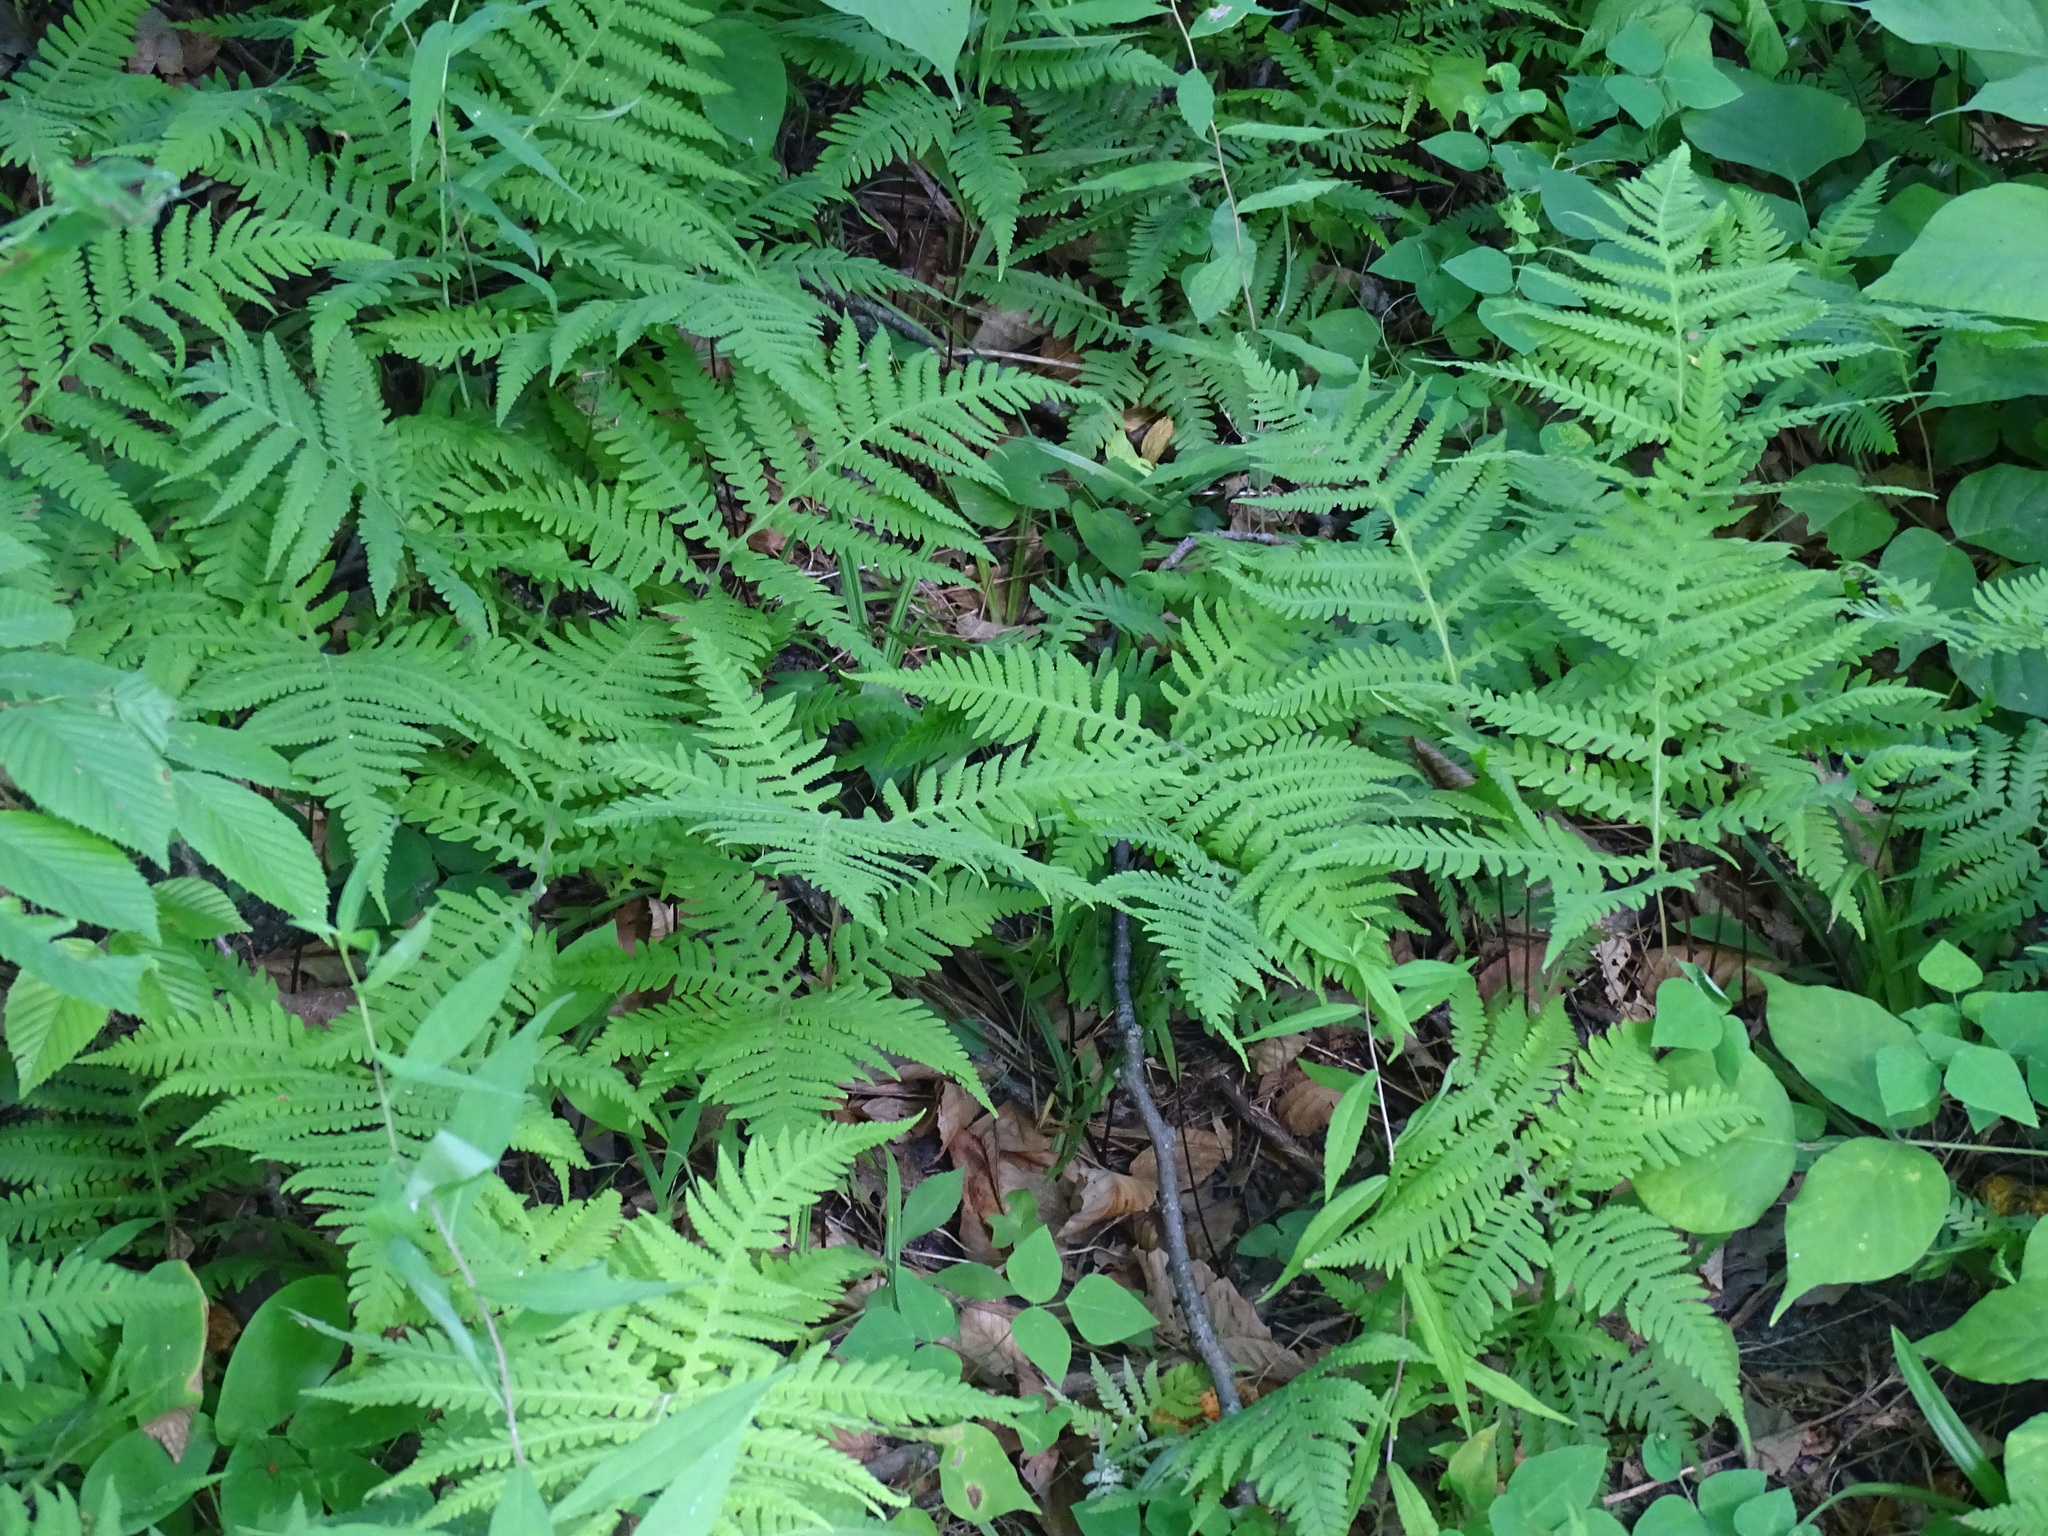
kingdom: Plantae
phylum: Tracheophyta
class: Polypodiopsida
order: Polypodiales
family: Thelypteridaceae
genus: Phegopteris
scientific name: Phegopteris hexagonoptera
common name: Broad beech fern
